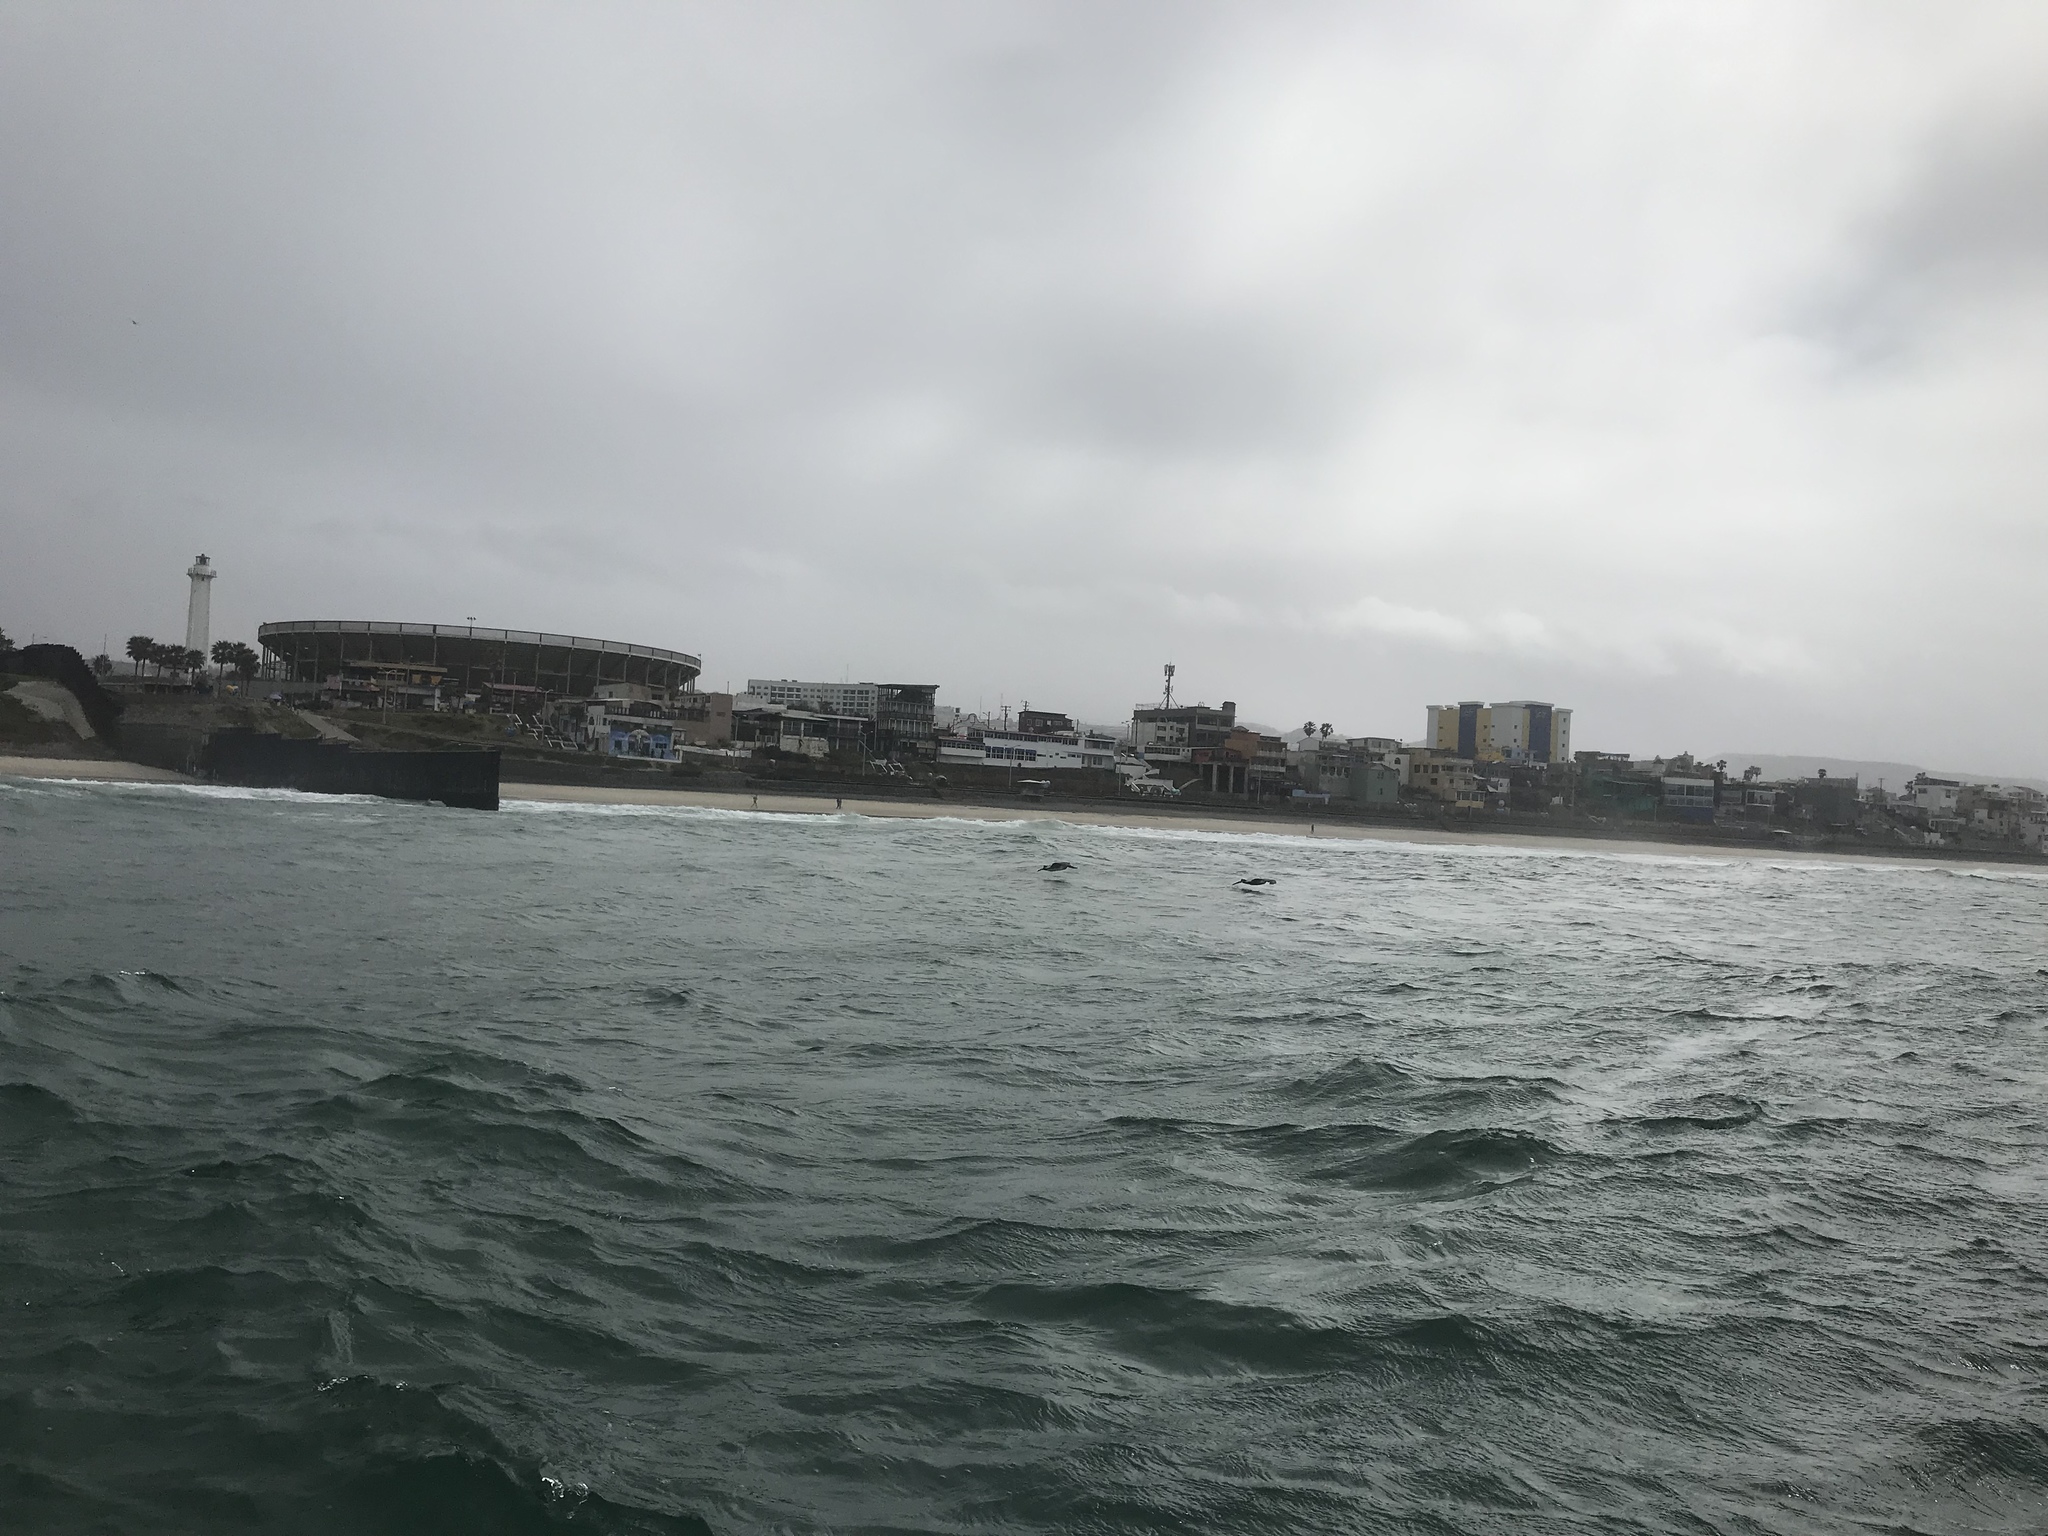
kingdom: Animalia
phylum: Chordata
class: Aves
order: Pelecaniformes
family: Pelecanidae
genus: Pelecanus
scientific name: Pelecanus occidentalis
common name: Brown pelican
